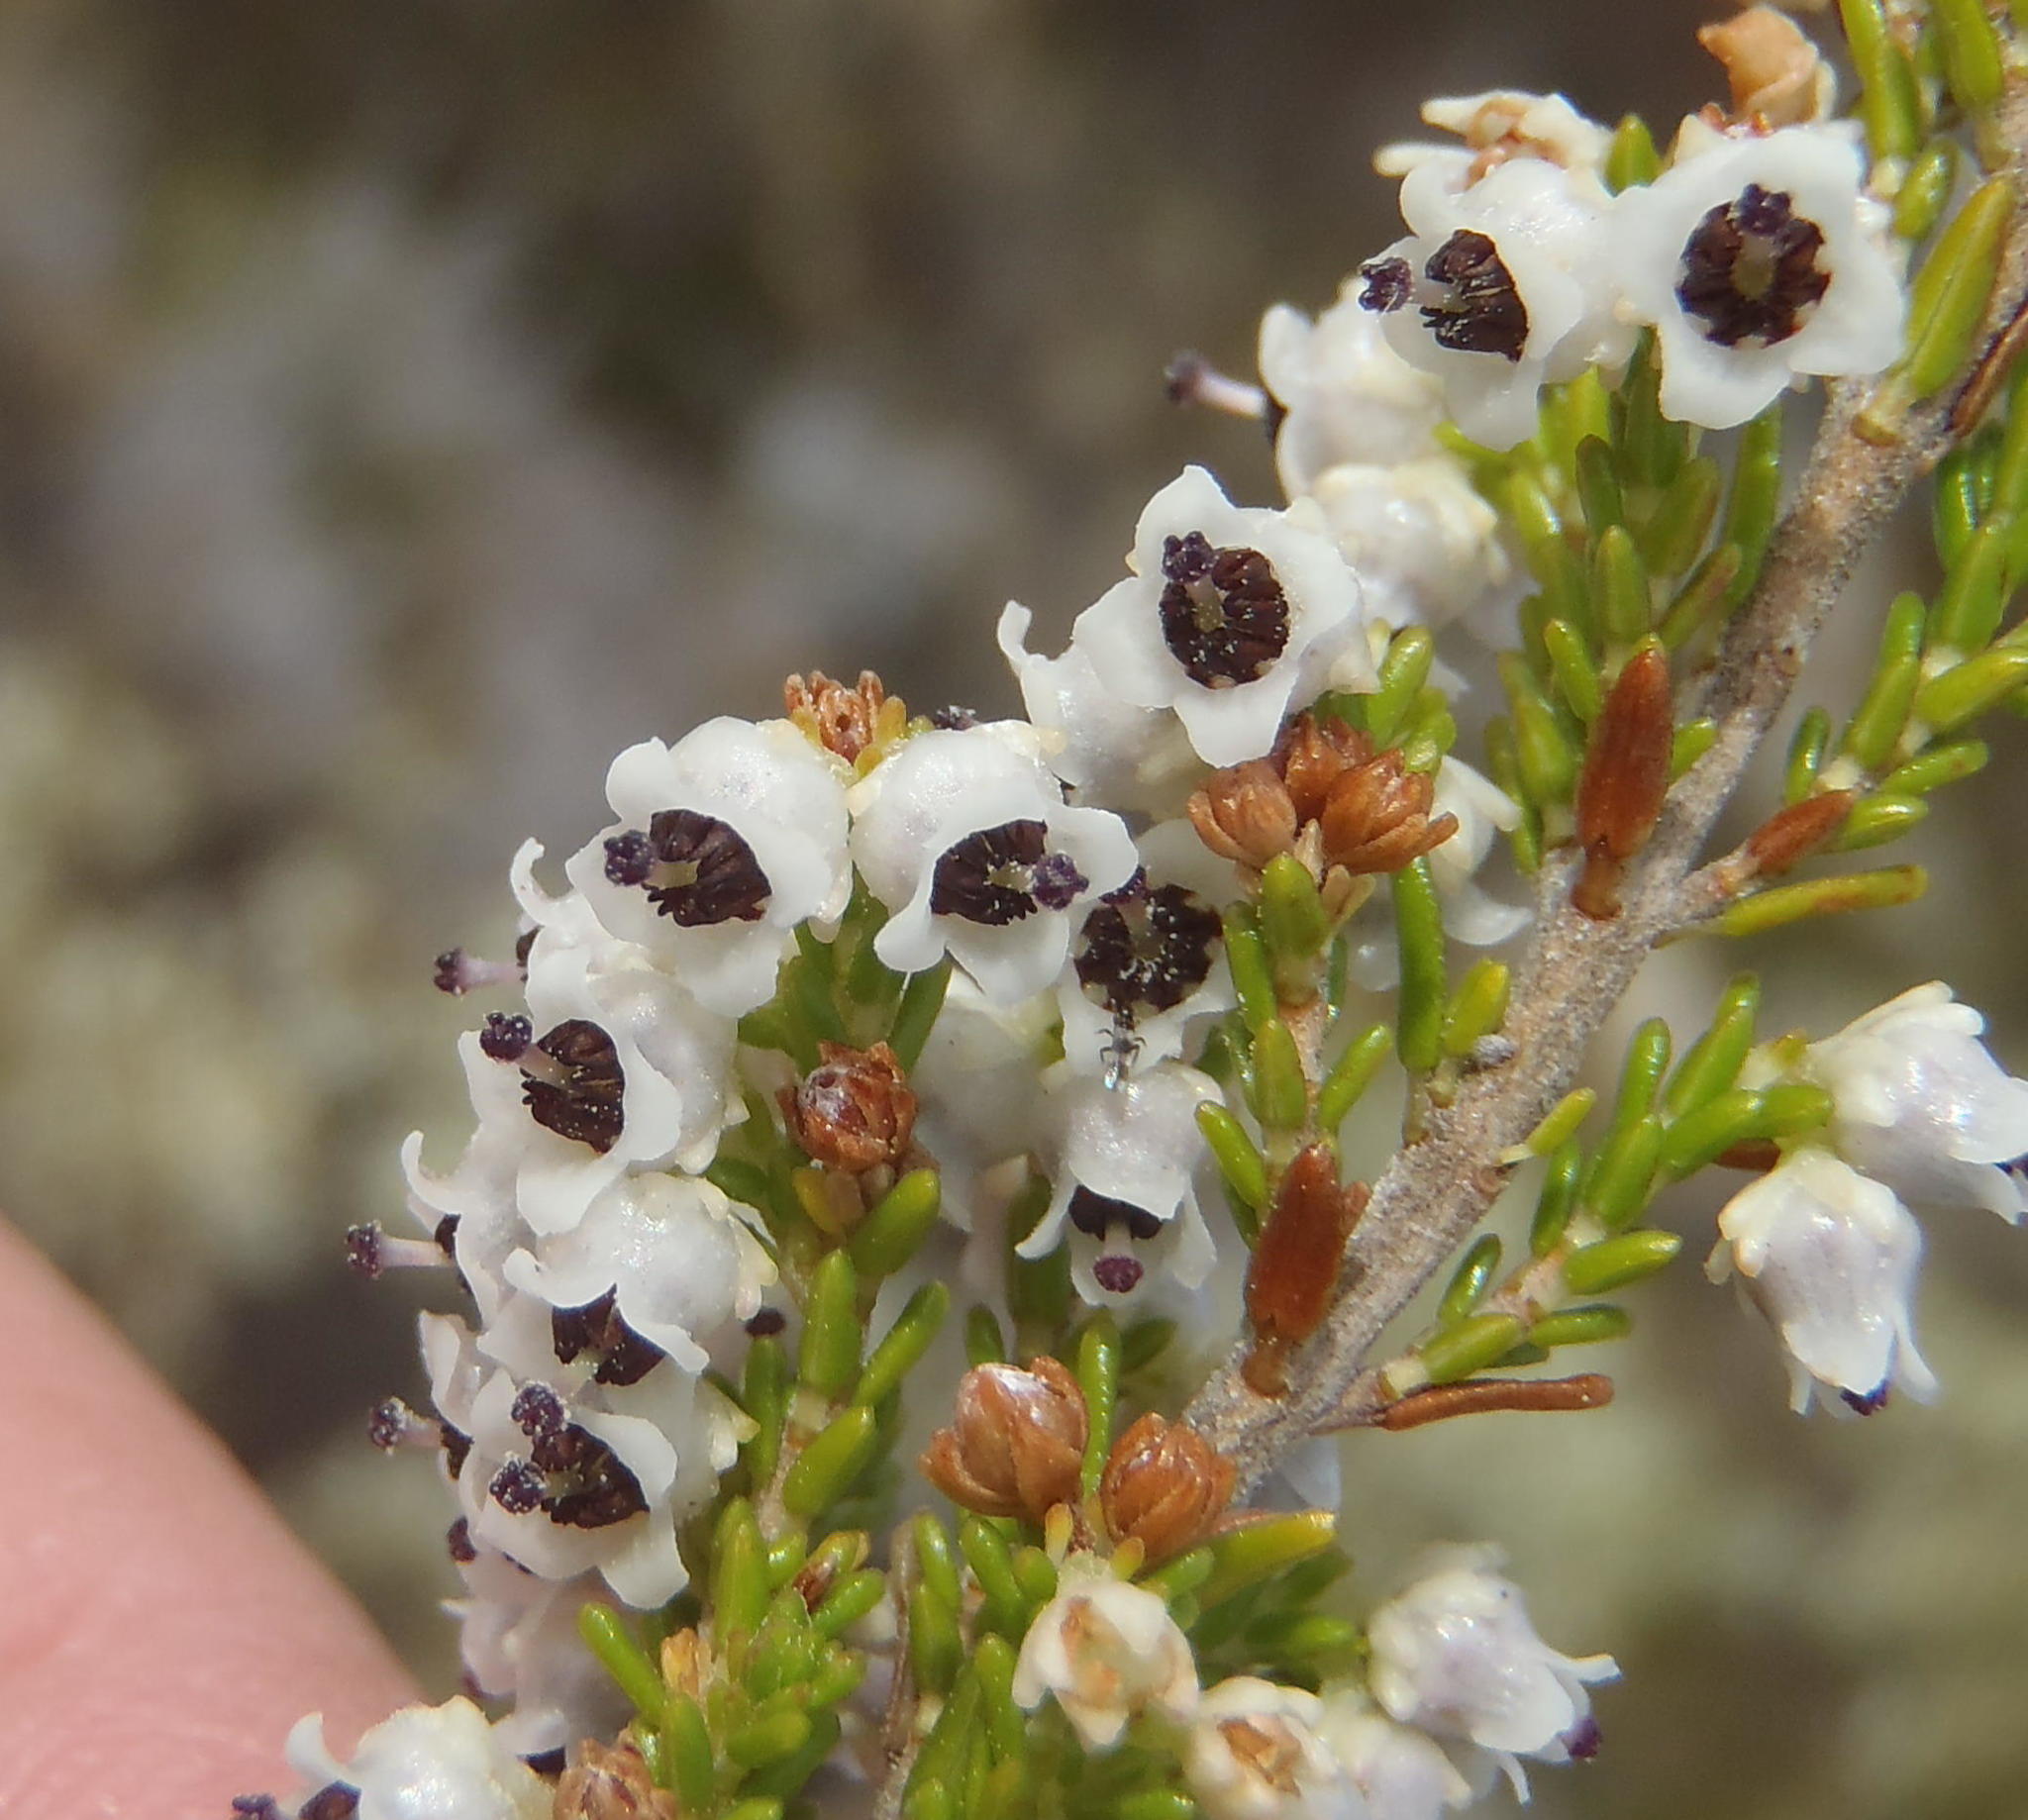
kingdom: Plantae
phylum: Tracheophyta
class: Magnoliopsida
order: Ericales
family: Ericaceae
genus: Erica
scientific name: Erica zwartbergensis
